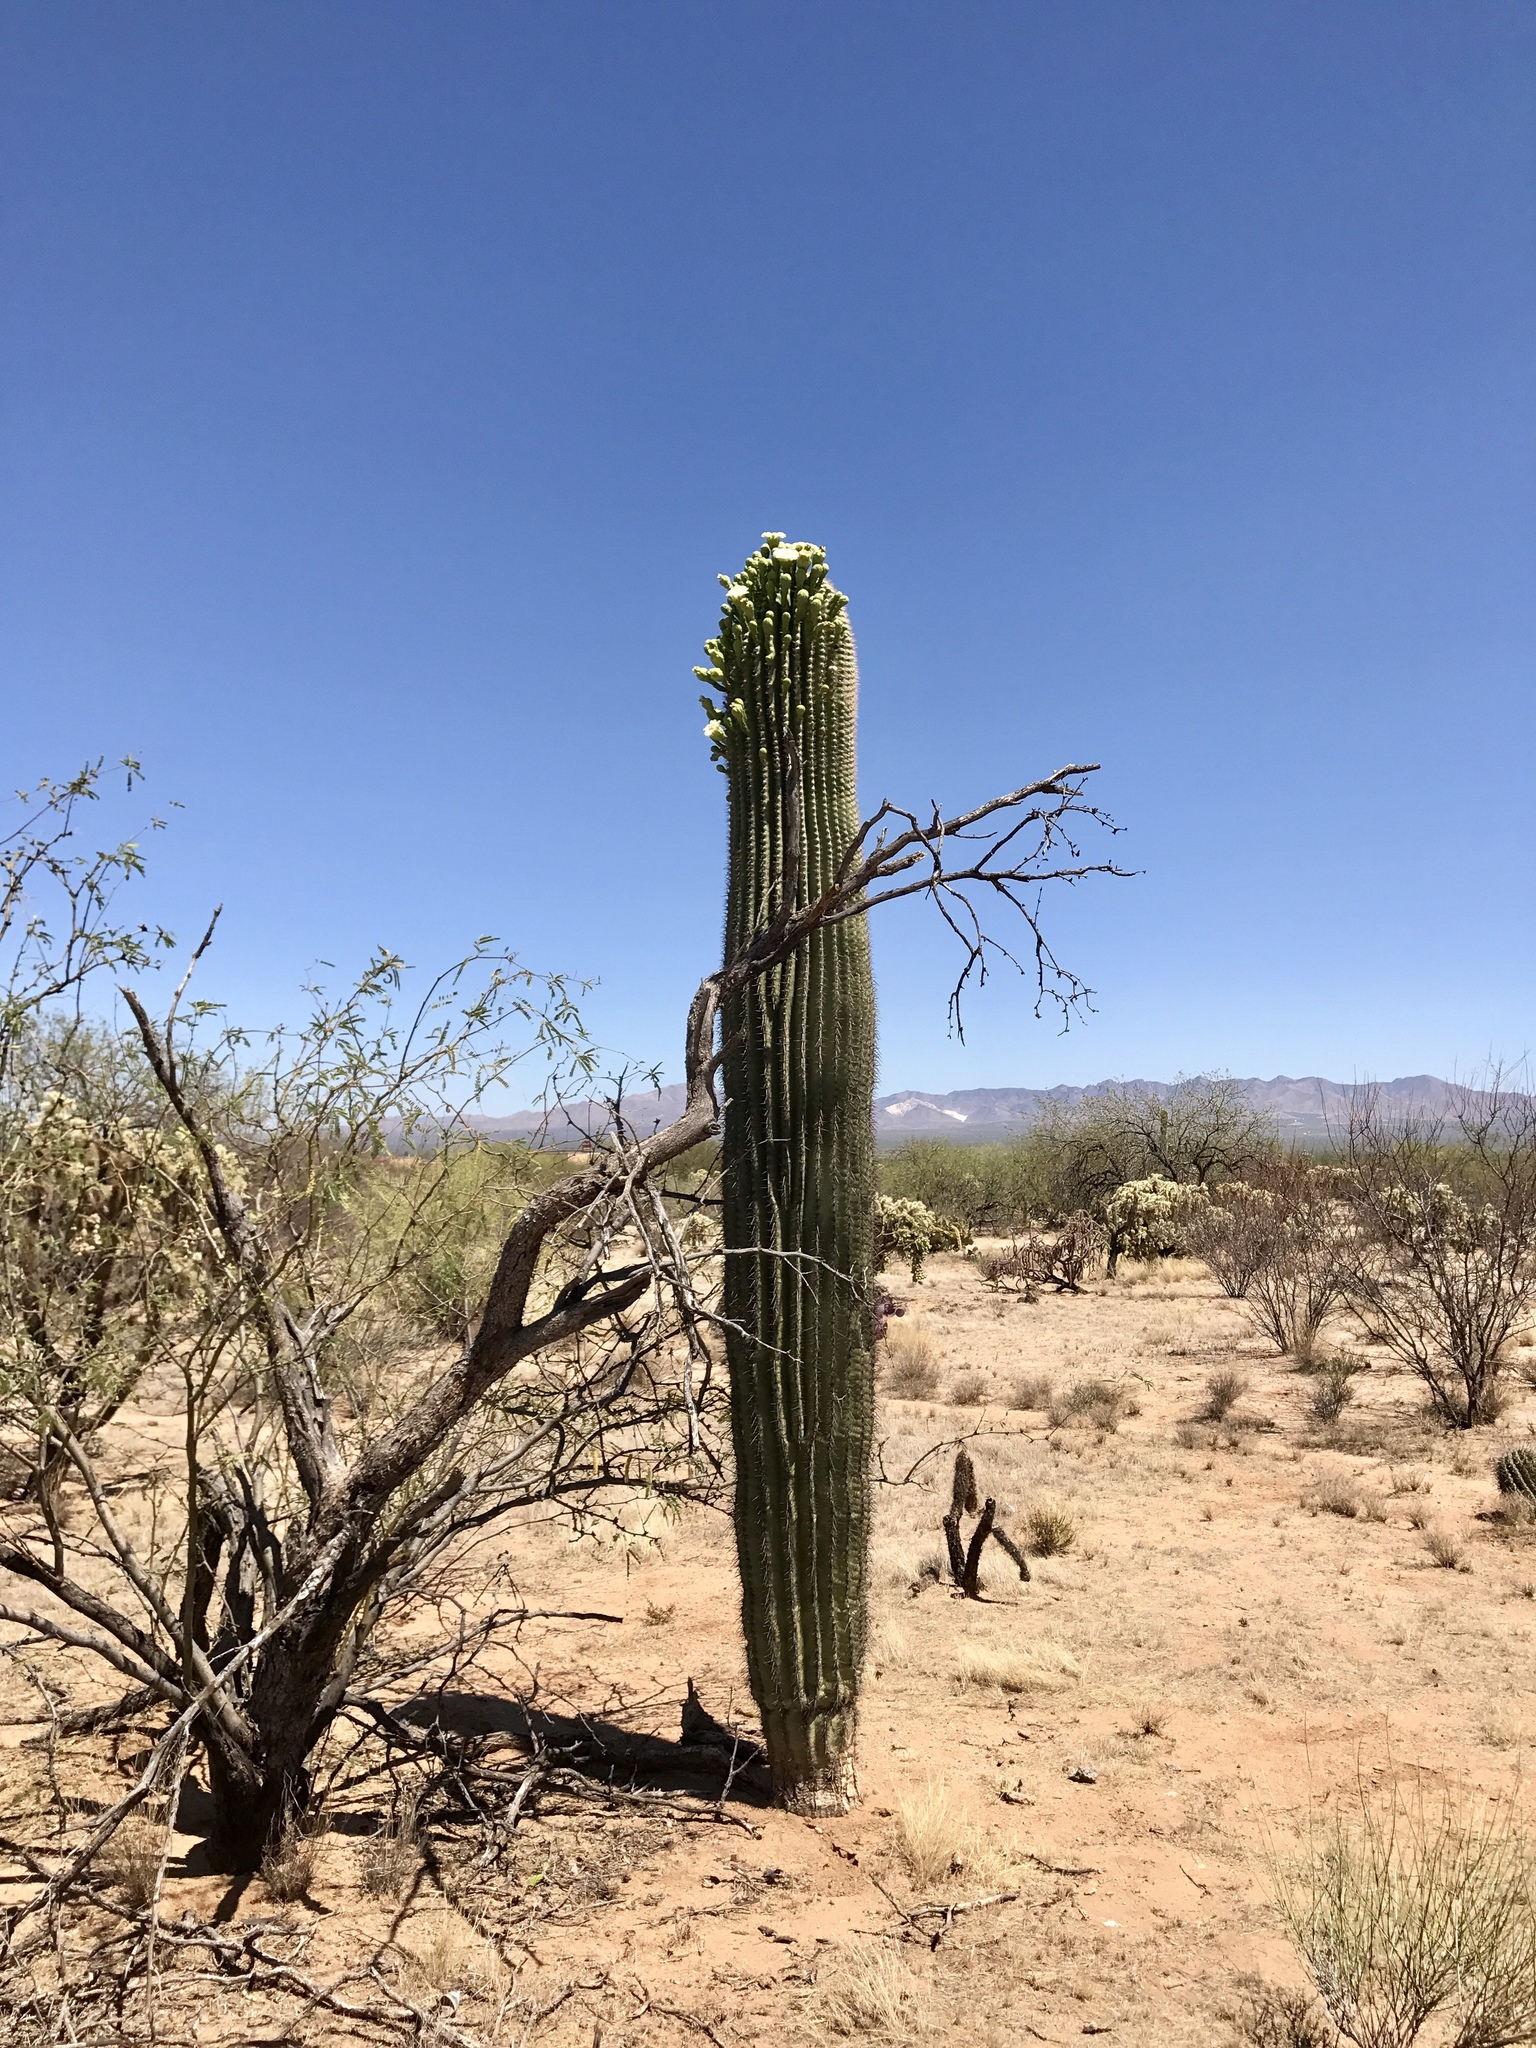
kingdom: Plantae
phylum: Tracheophyta
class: Magnoliopsida
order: Caryophyllales
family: Cactaceae
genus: Carnegiea
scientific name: Carnegiea gigantea
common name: Saguaro
